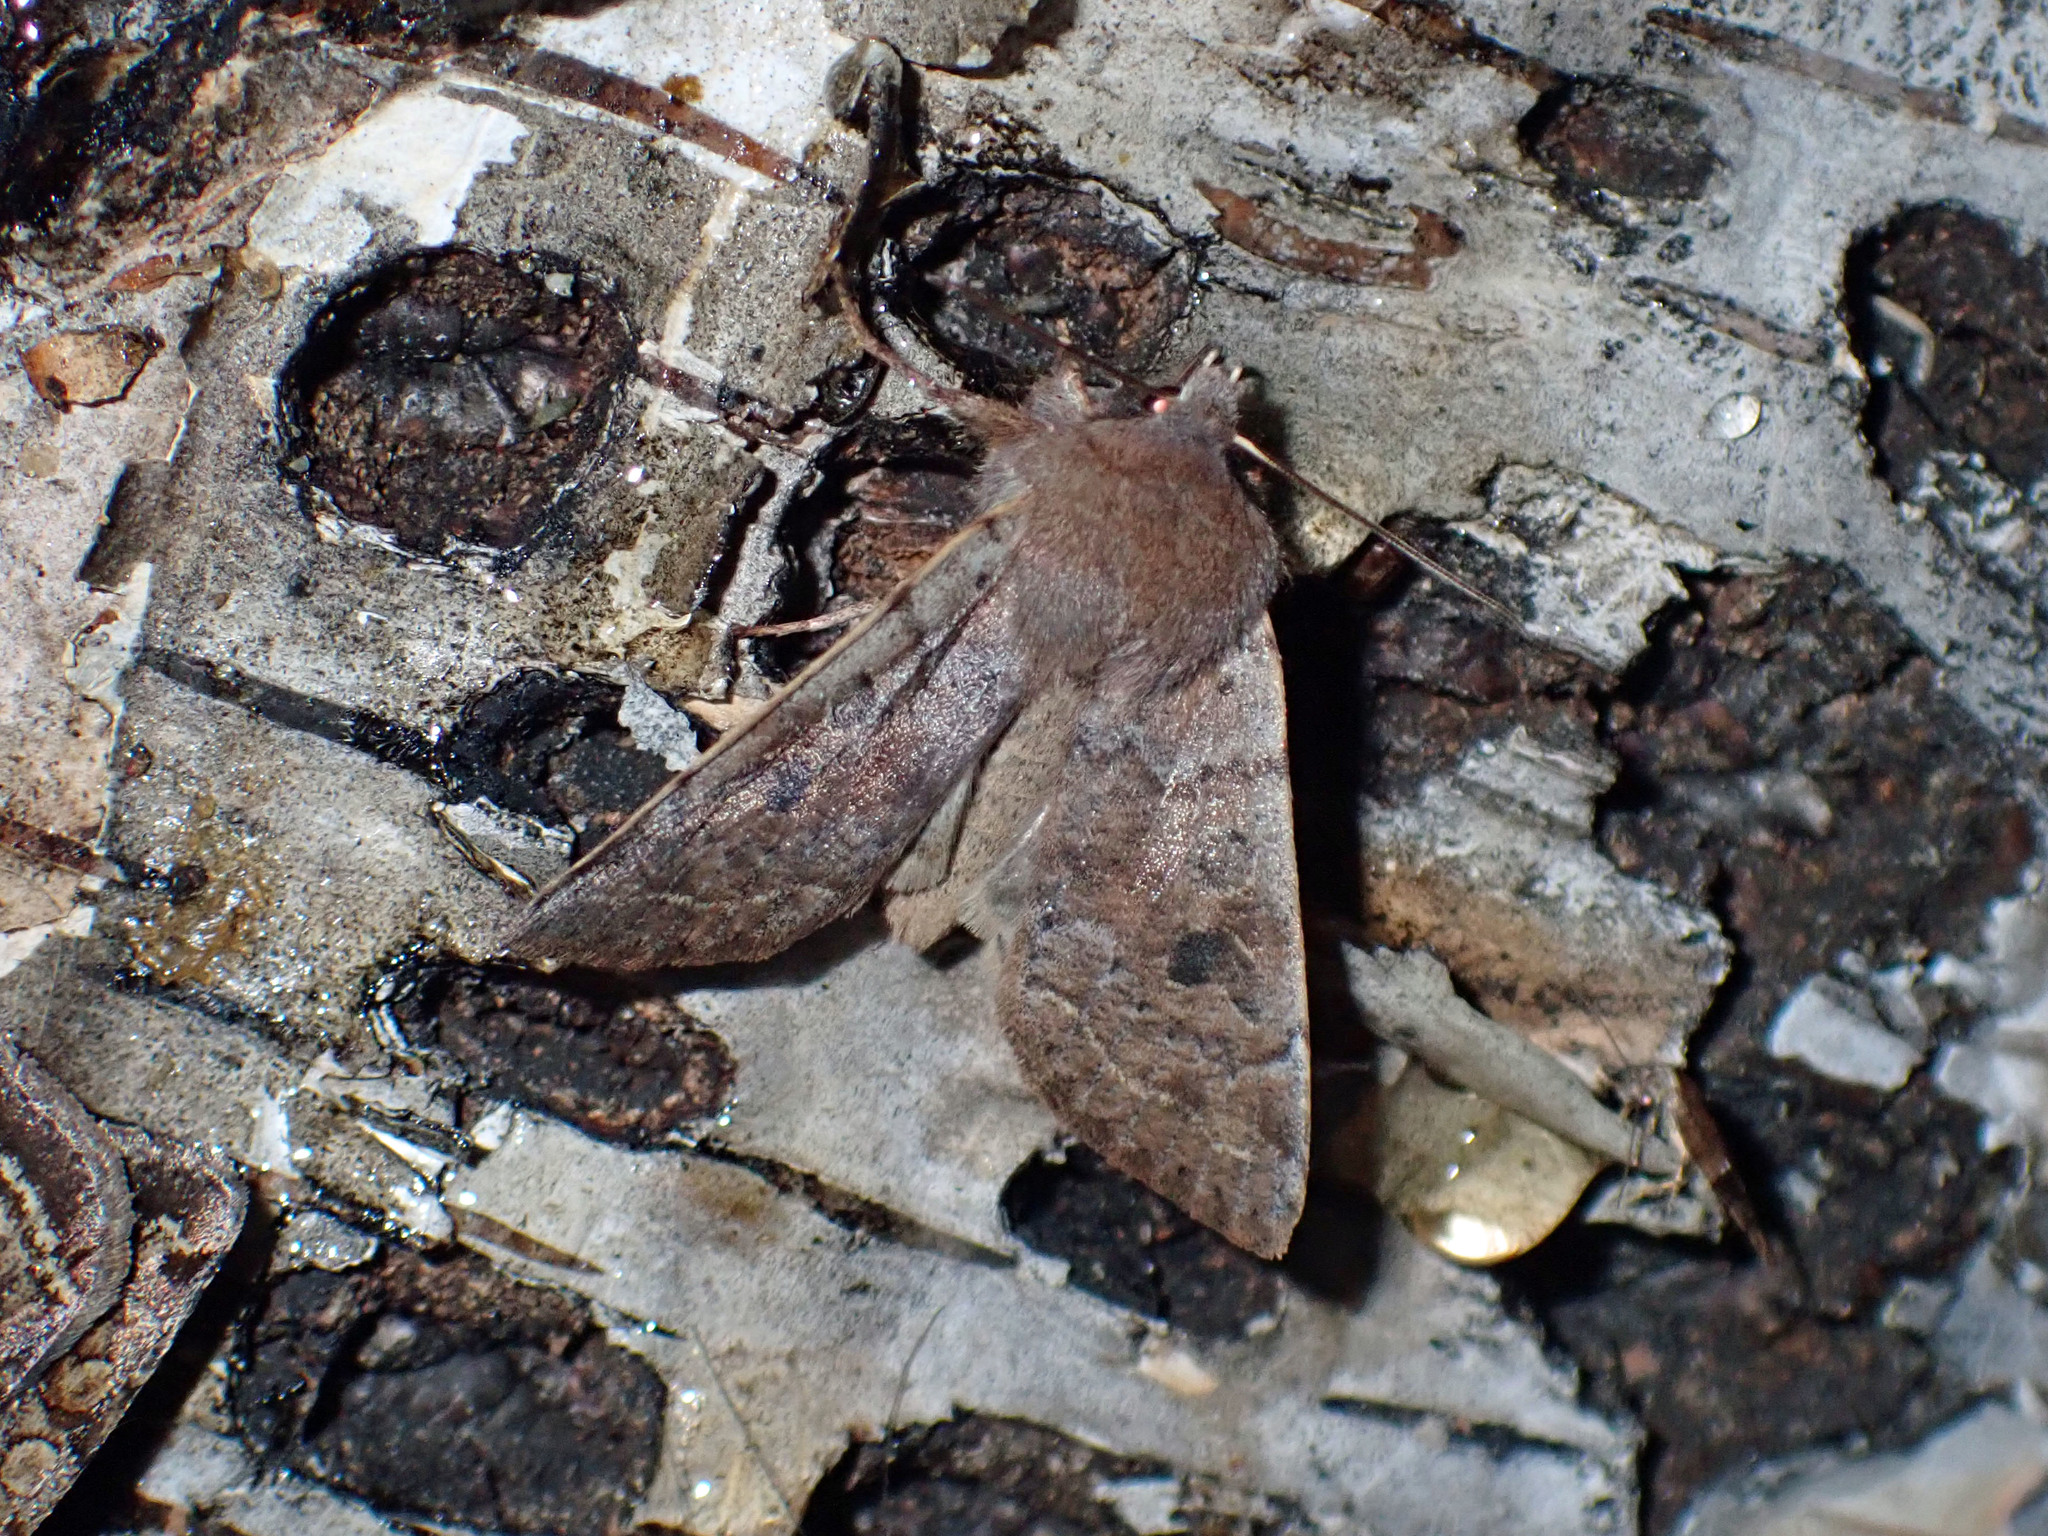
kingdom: Animalia
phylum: Arthropoda
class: Insecta
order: Lepidoptera
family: Noctuidae
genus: Orthosia
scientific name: Orthosia hibisci
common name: Green fruitworm
